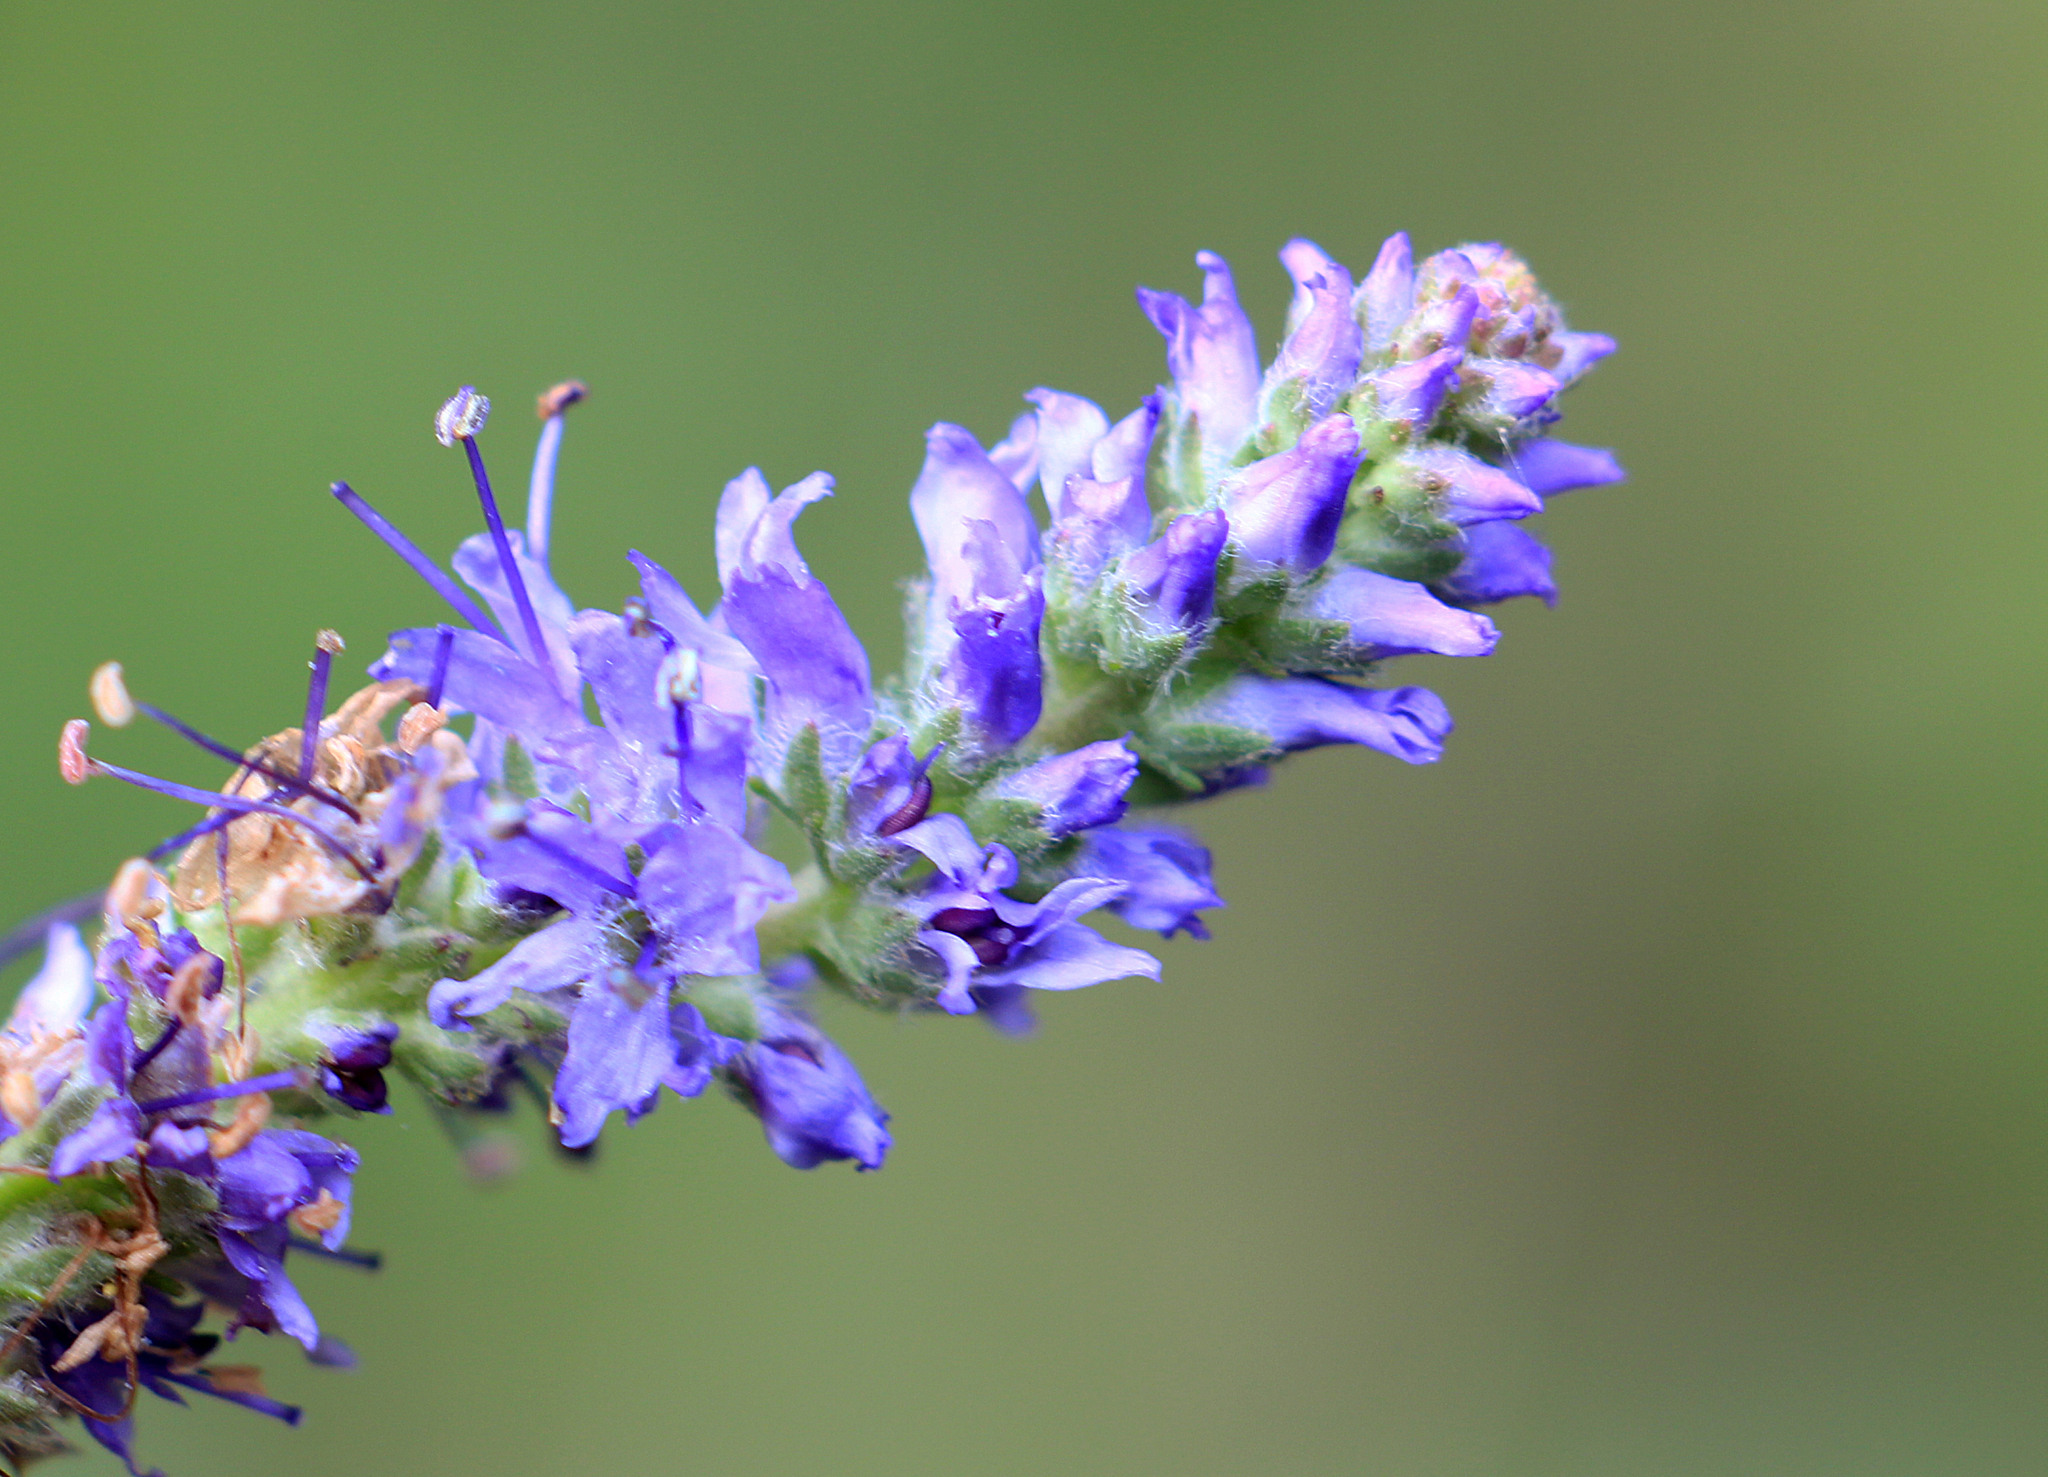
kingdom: Plantae
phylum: Tracheophyta
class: Magnoliopsida
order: Lamiales
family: Plantaginaceae
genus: Veronica
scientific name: Veronica spicata
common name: Spiked speedwell
